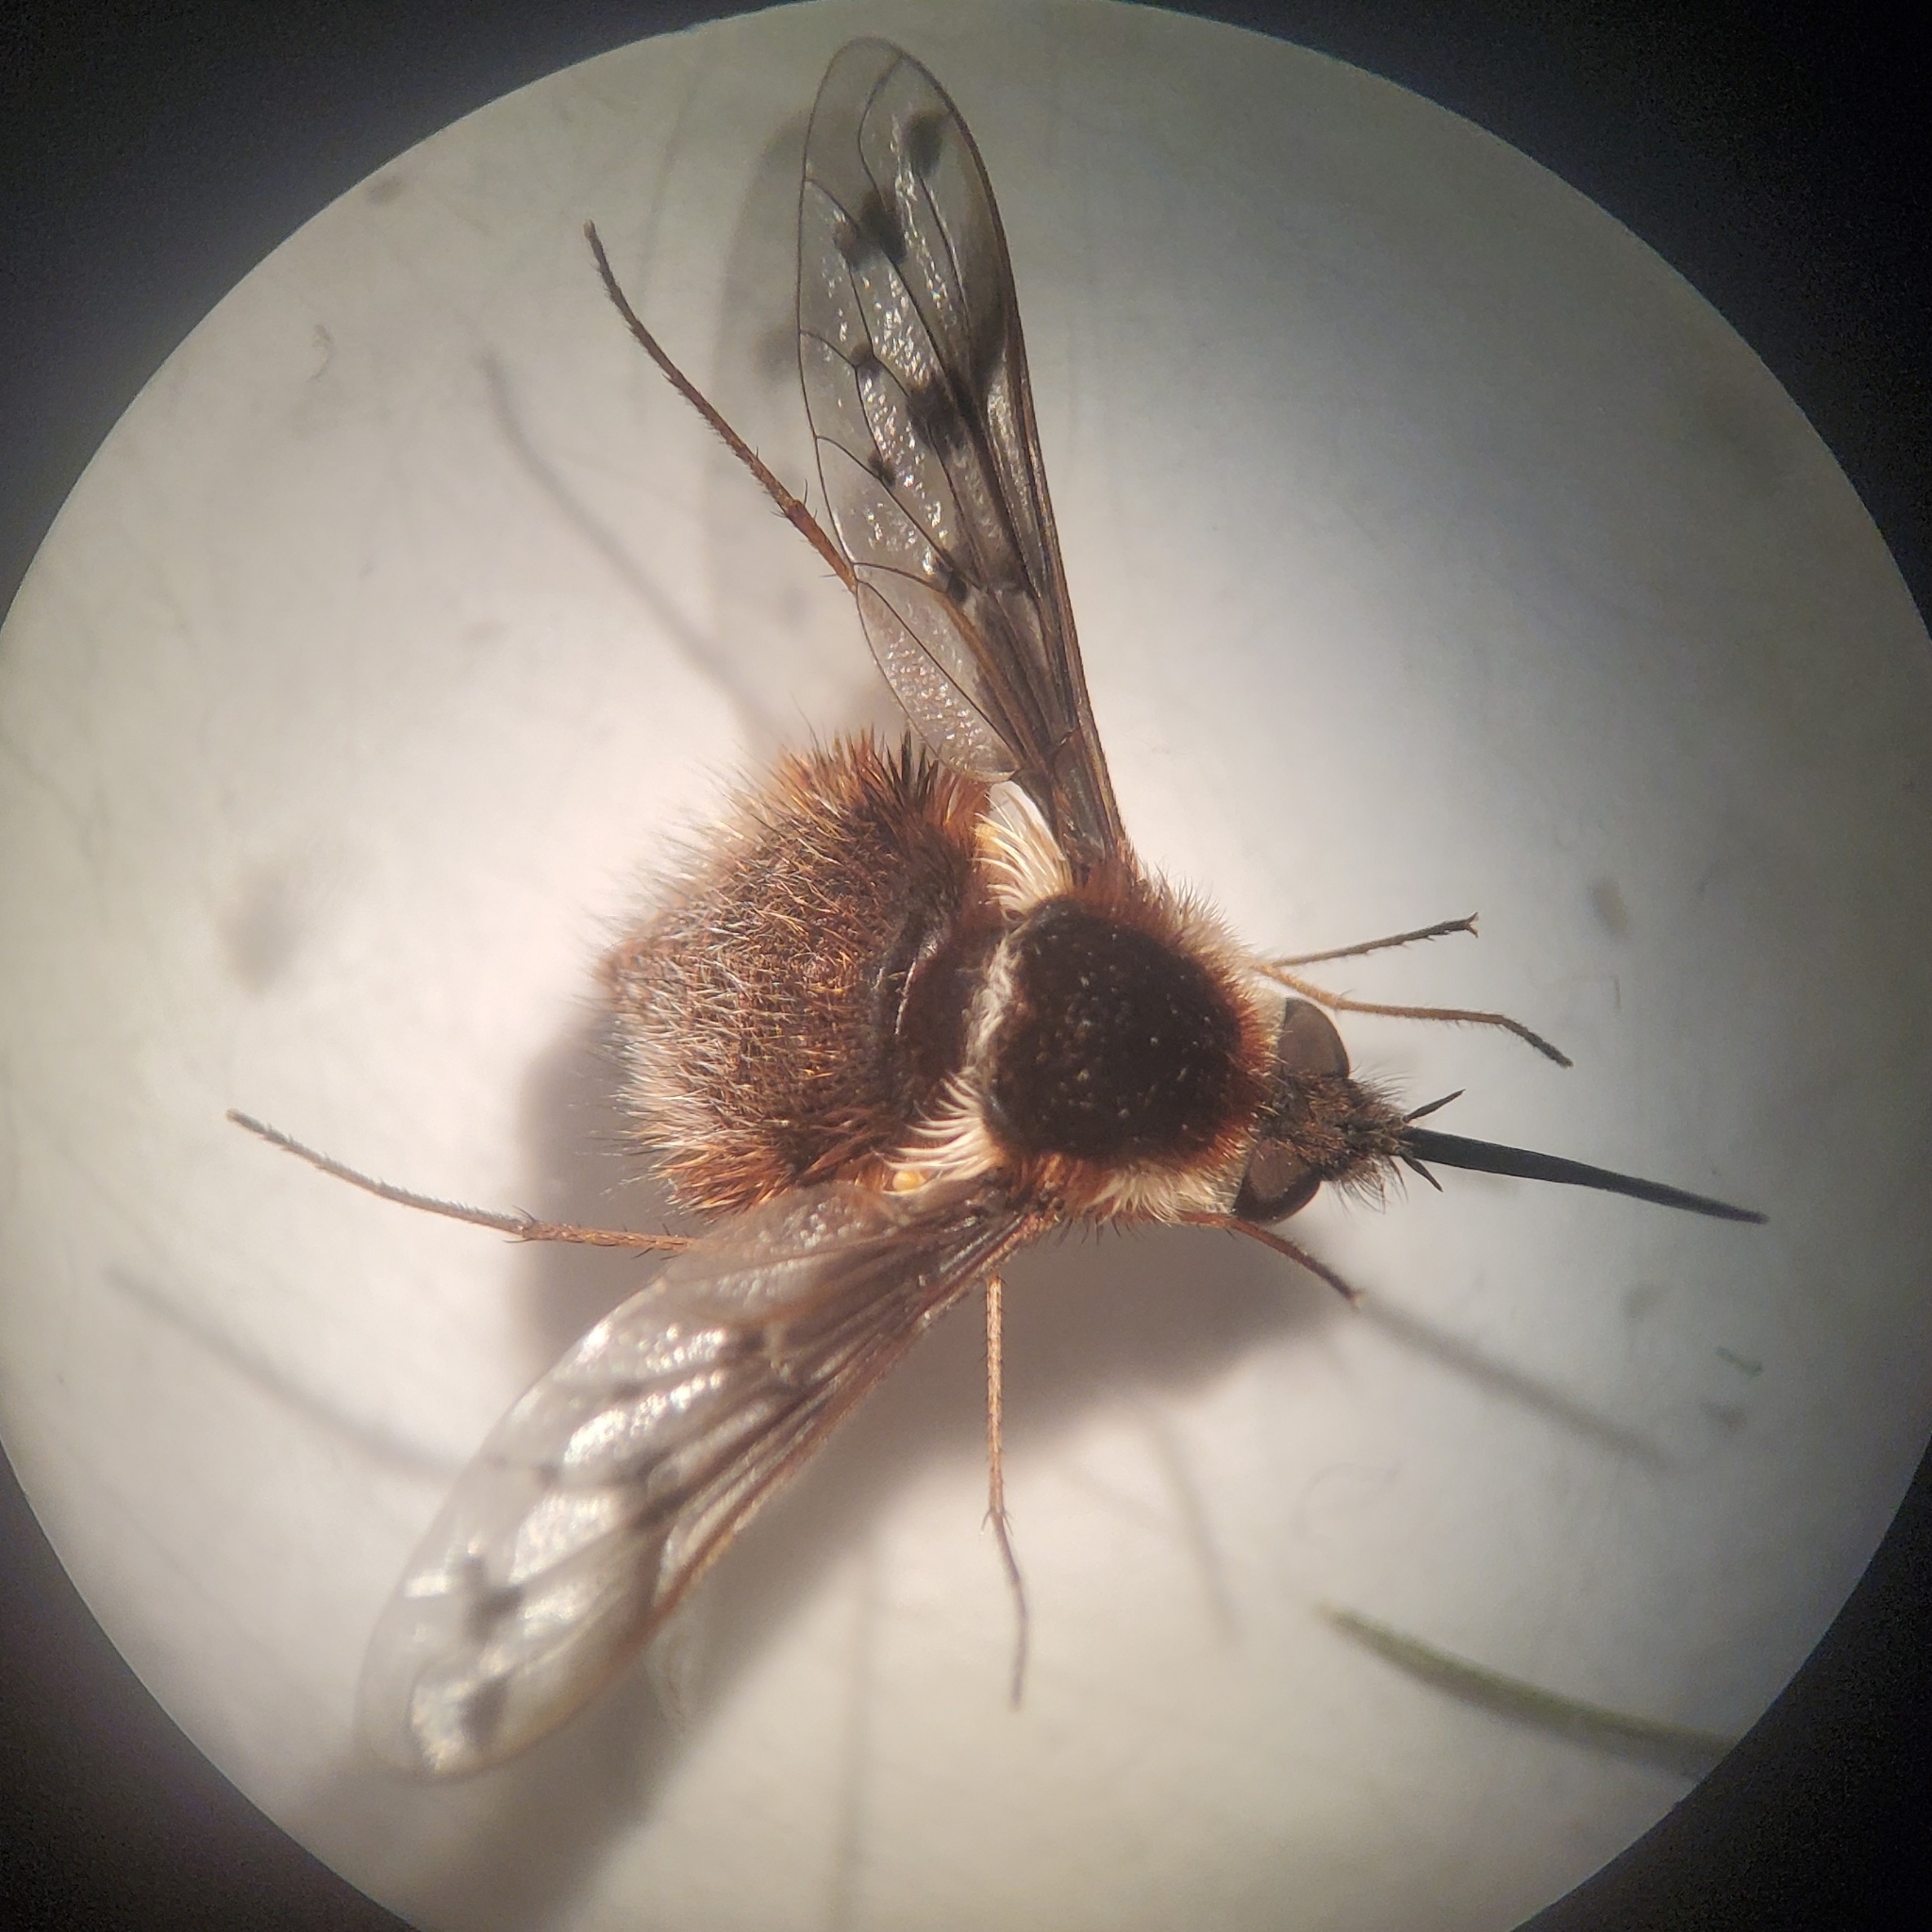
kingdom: Animalia
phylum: Arthropoda
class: Insecta
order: Diptera
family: Bombyliidae
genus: Bombylius
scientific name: Bombylius pygmaeus
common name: Pygmy bee fly
